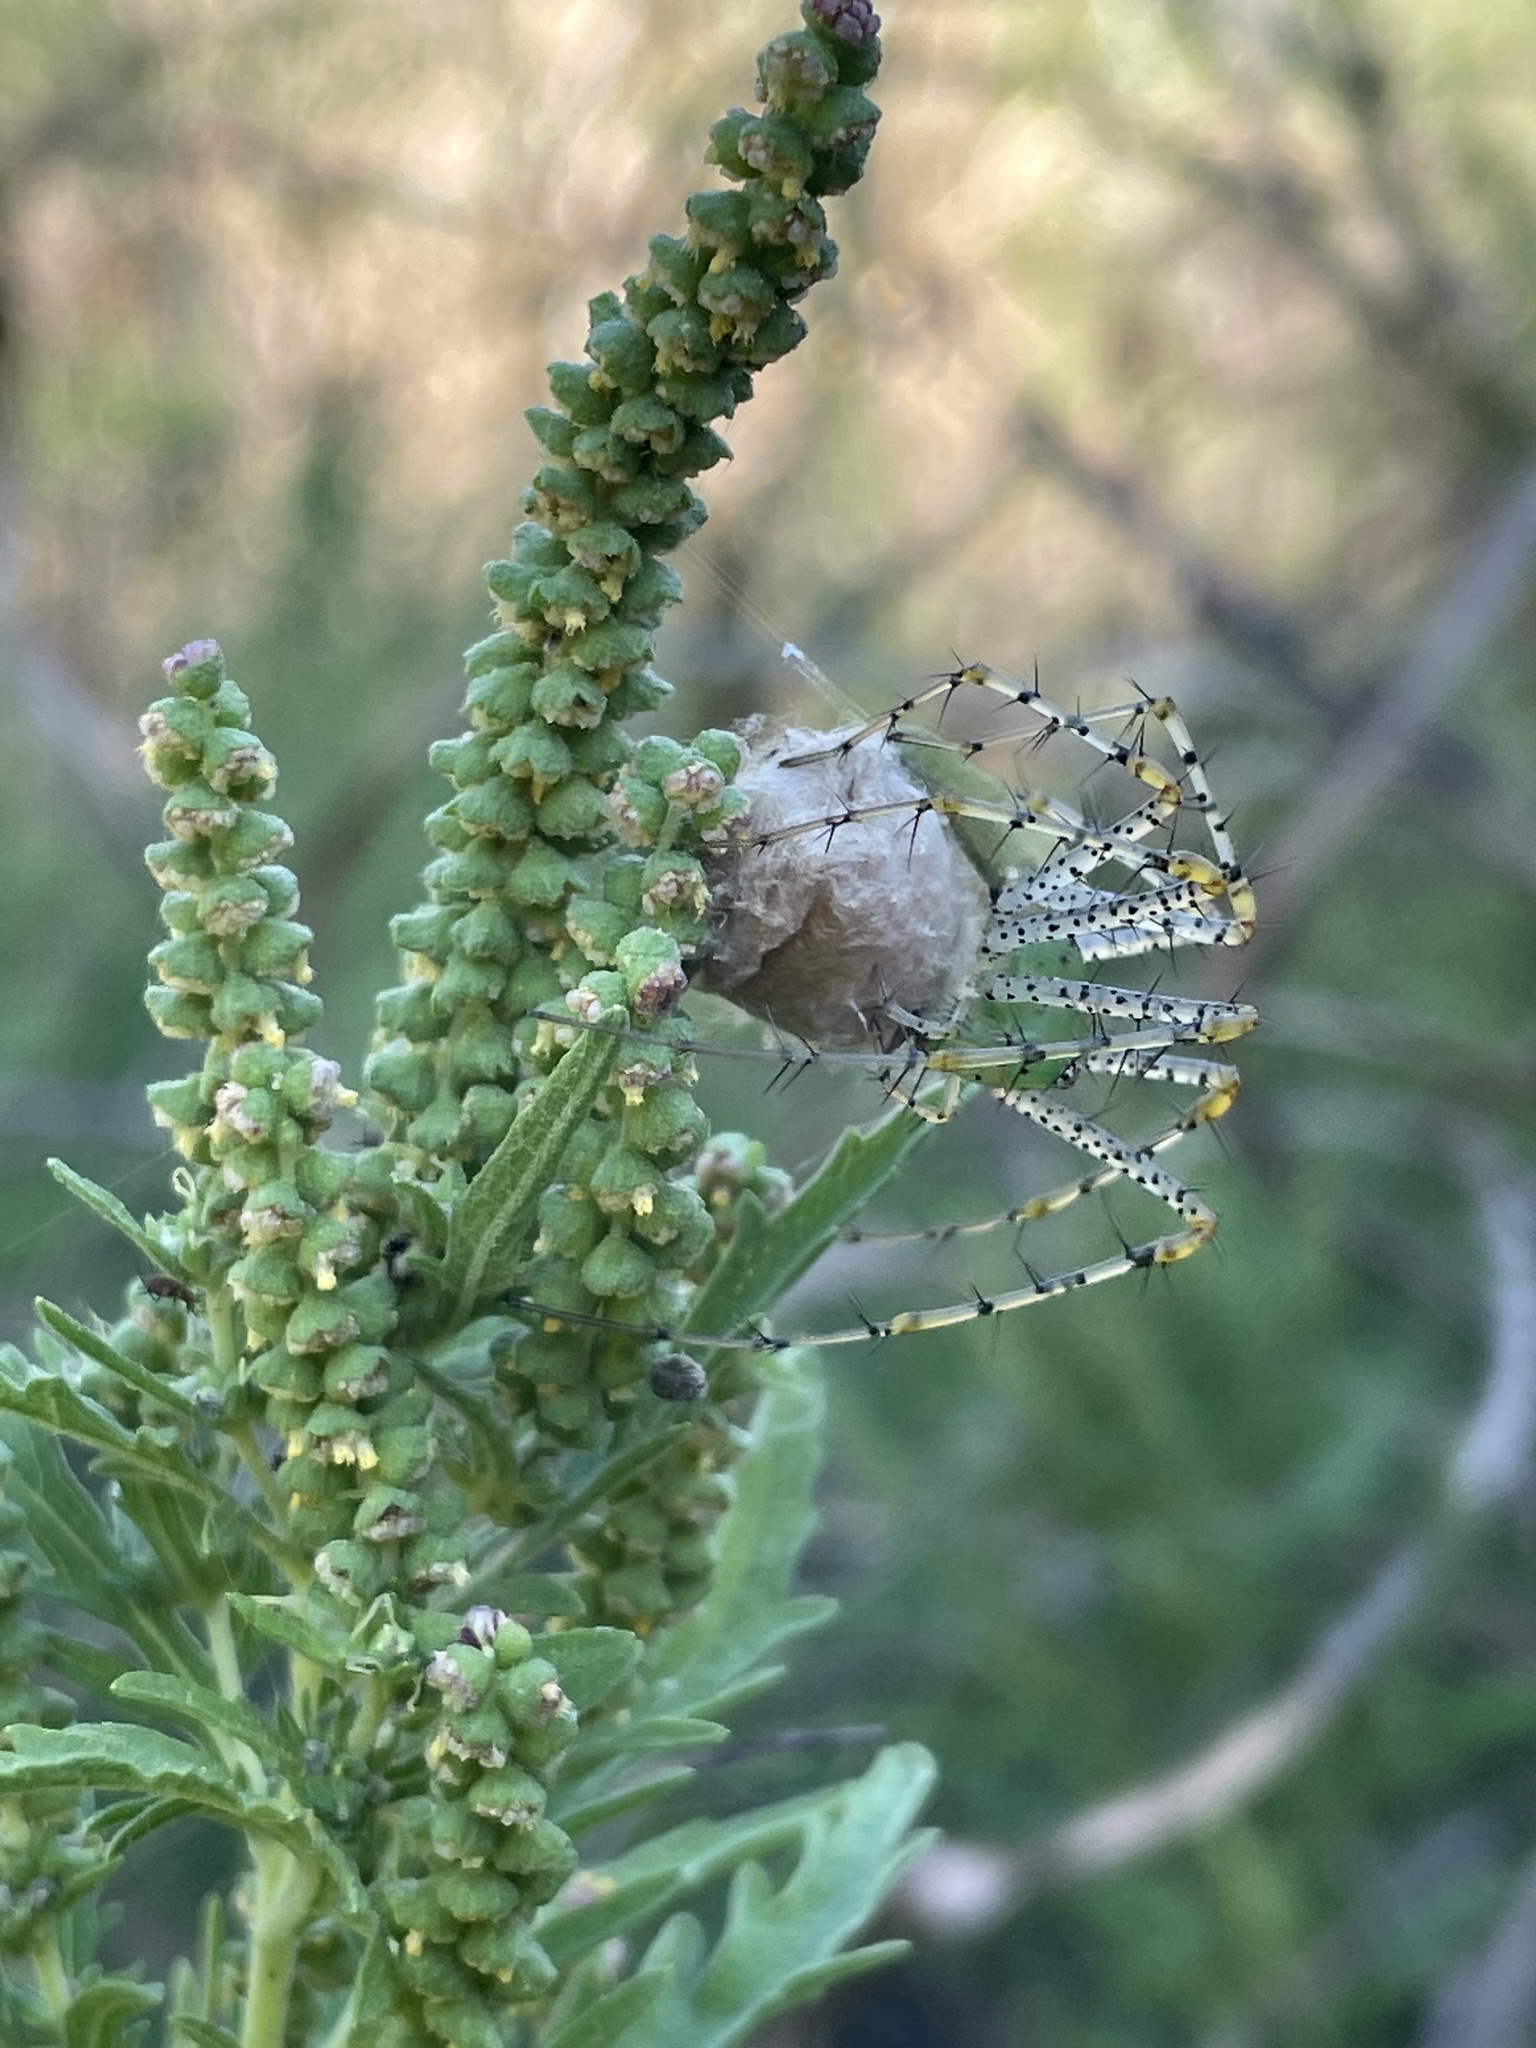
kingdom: Animalia
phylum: Arthropoda
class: Arachnida
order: Araneae
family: Oxyopidae
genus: Peucetia
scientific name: Peucetia viridans
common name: Lynx spiders
